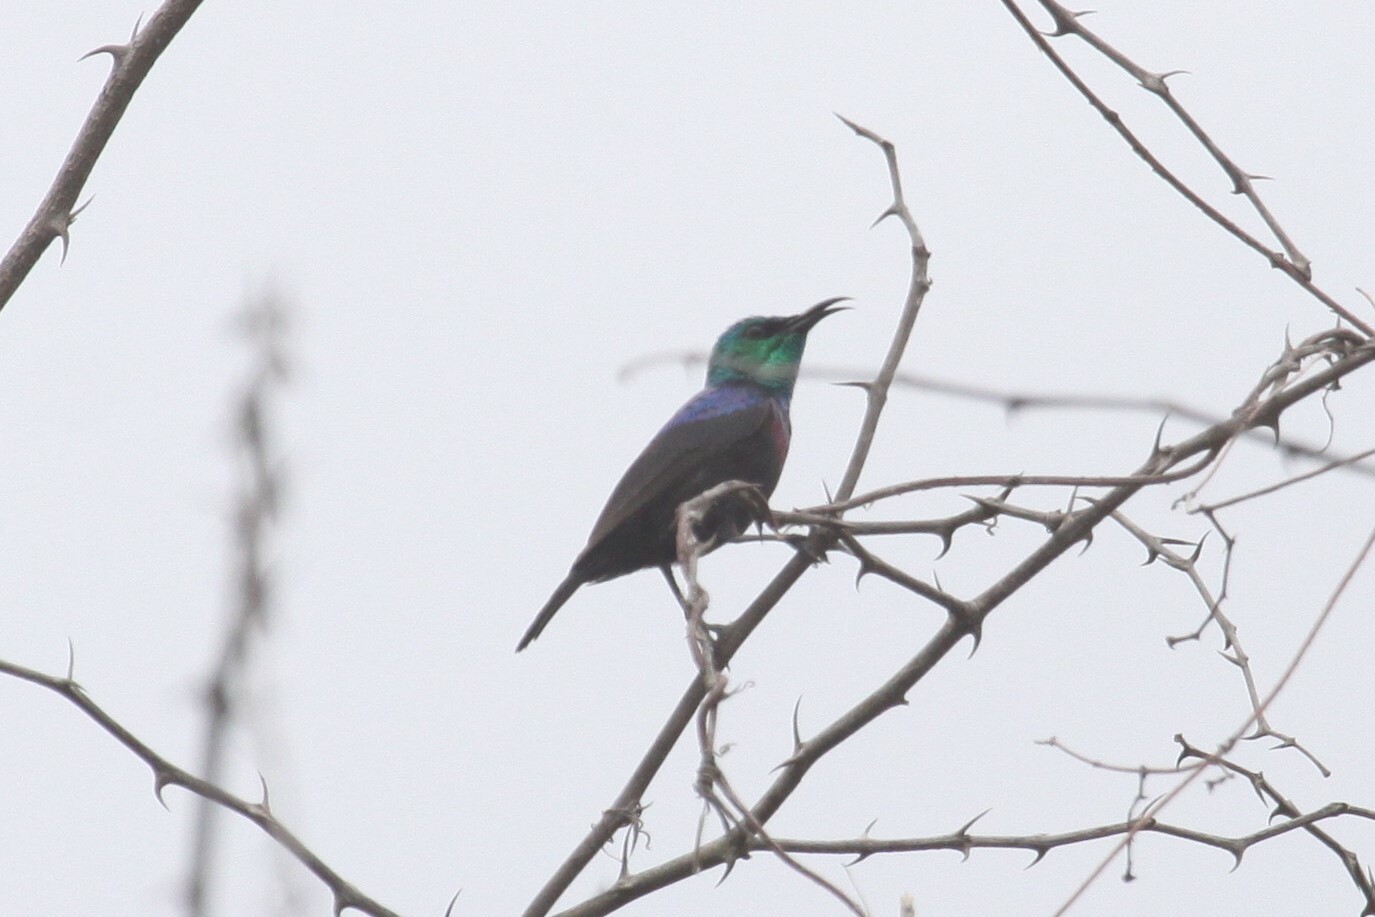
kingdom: Animalia
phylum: Chordata
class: Aves
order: Passeriformes
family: Nectariniidae
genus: Cinnyris
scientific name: Cinnyris bifasciatus
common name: Purple-banded sunbird
